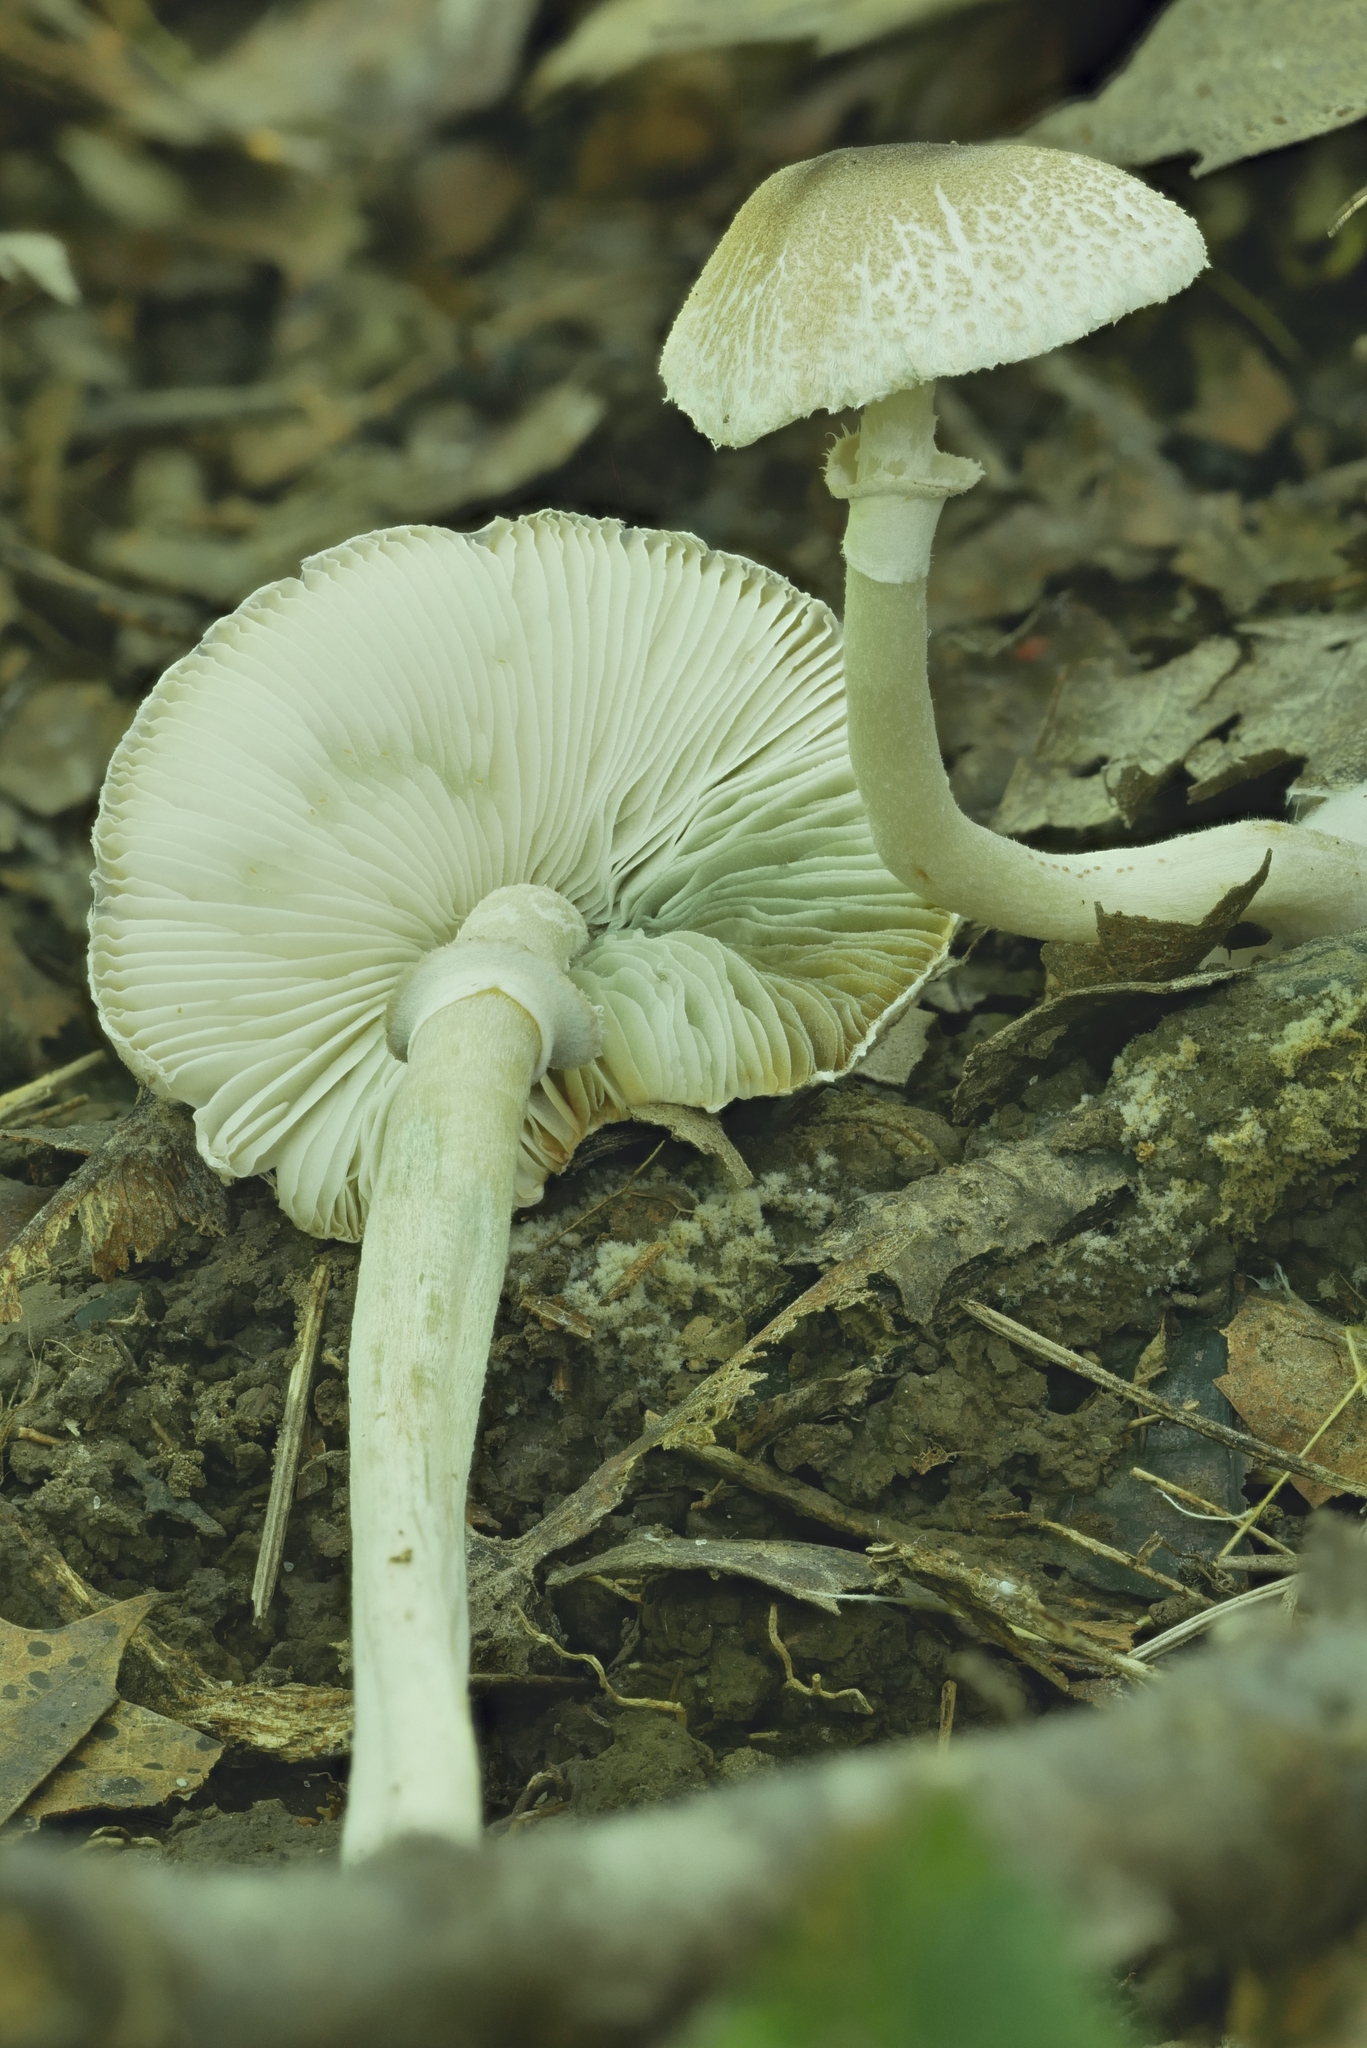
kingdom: Fungi
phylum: Basidiomycota
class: Agaricomycetes
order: Agaricales
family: Agaricaceae
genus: Leucoagaricus
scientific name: Leucoagaricus coerulescens
